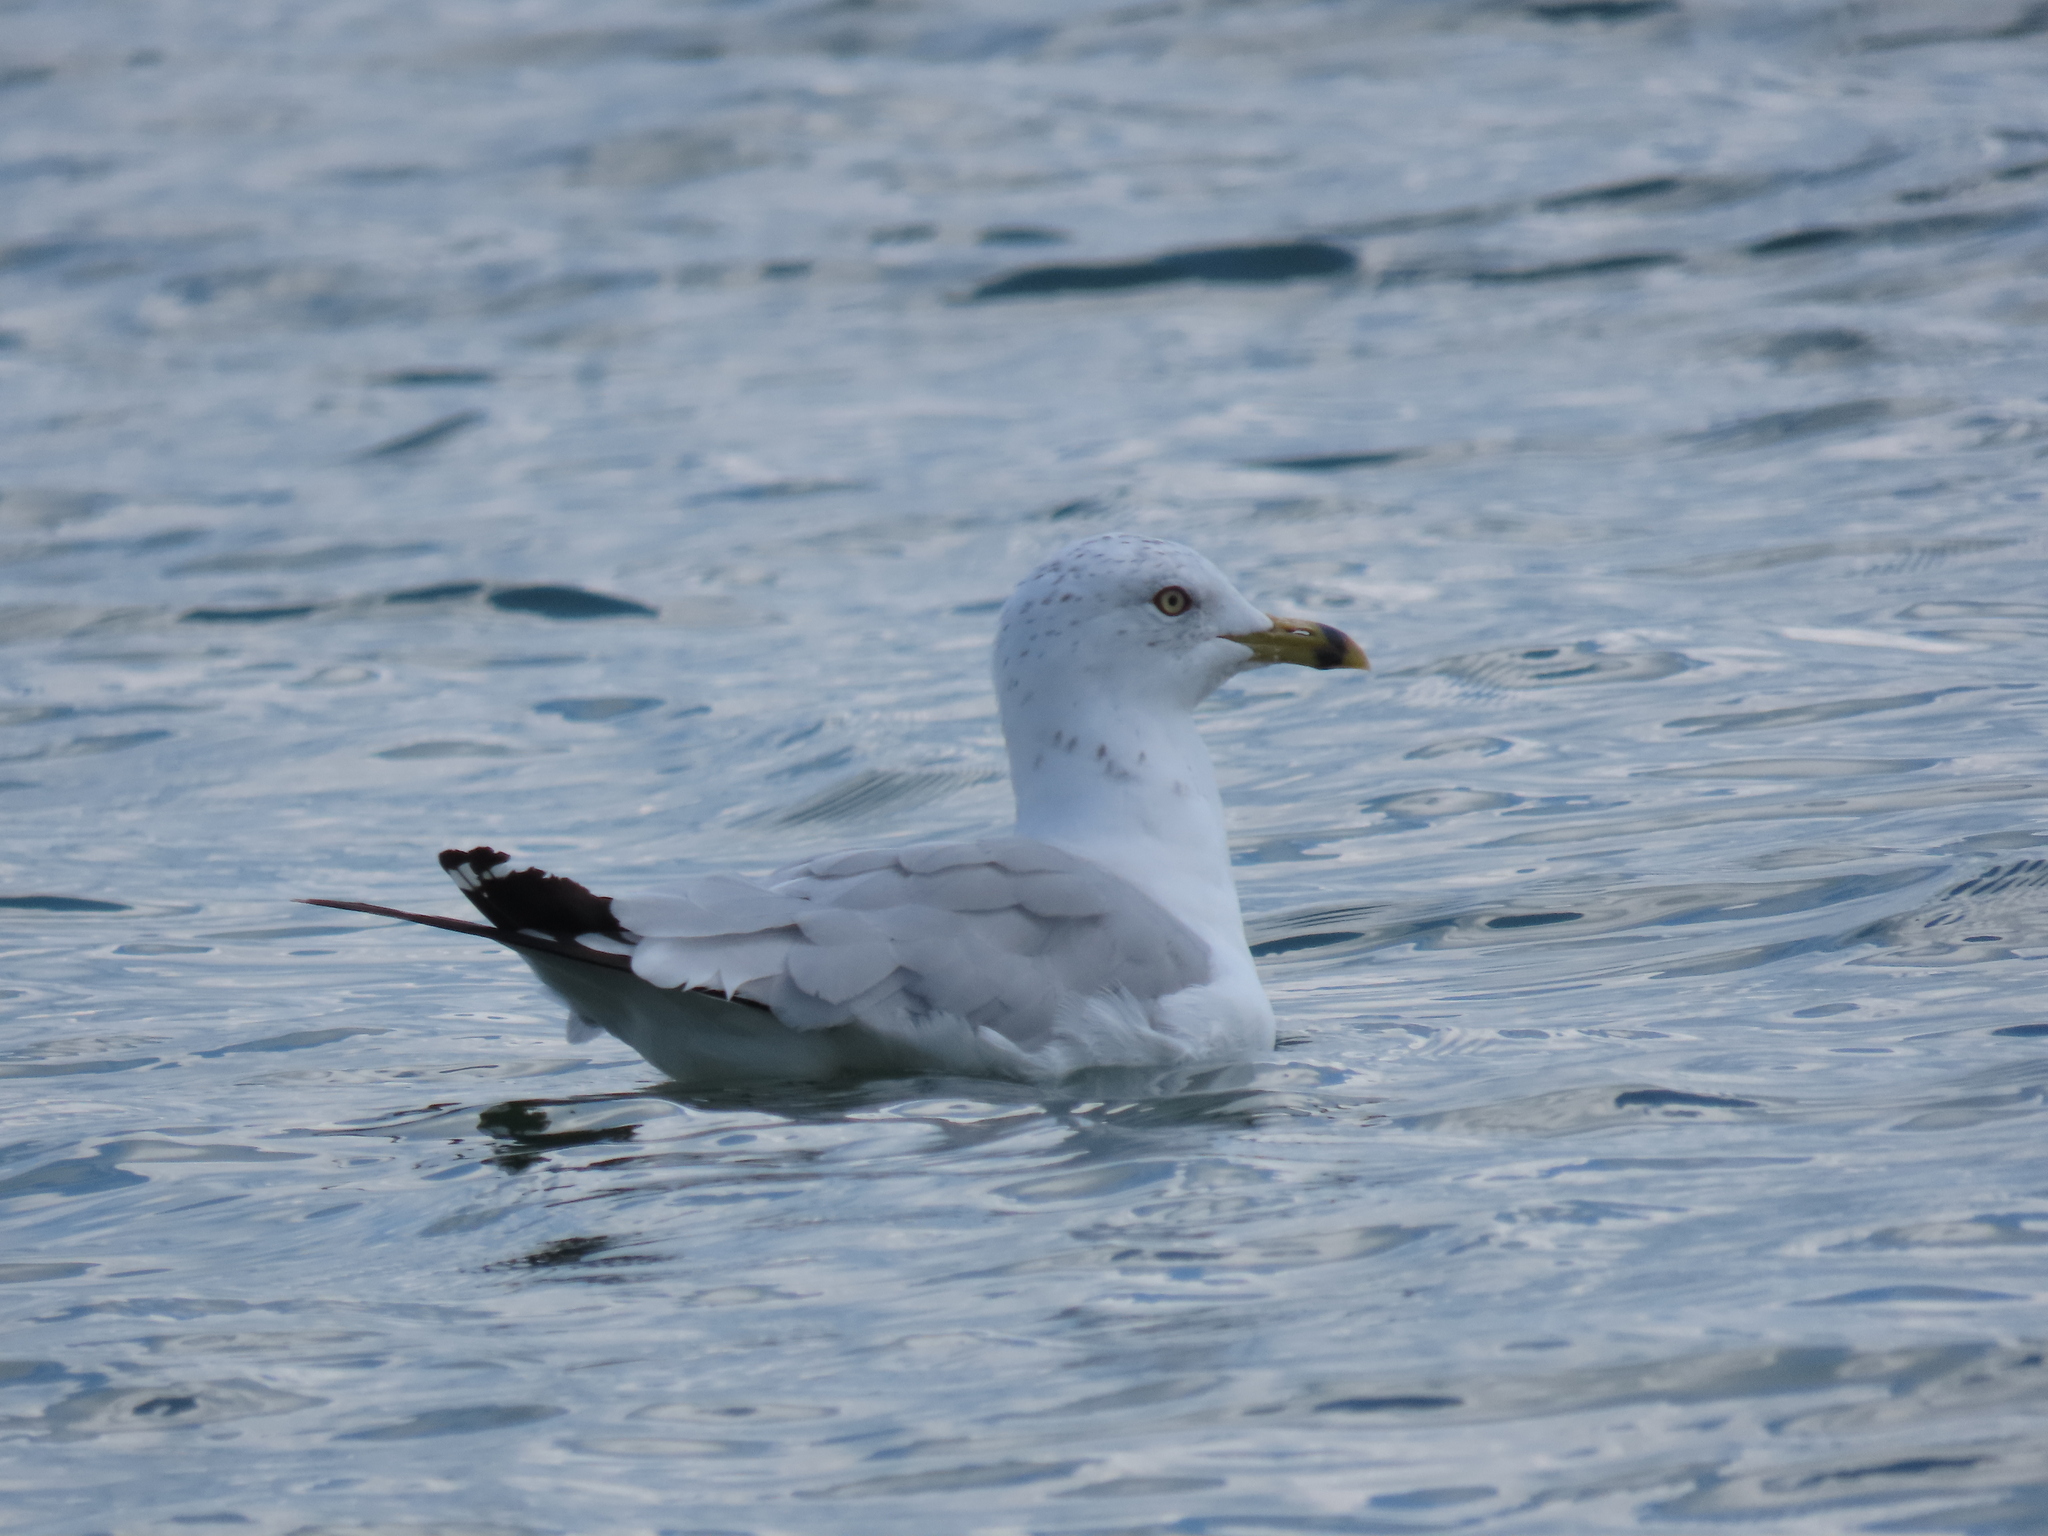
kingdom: Animalia
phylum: Chordata
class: Aves
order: Charadriiformes
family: Laridae
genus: Larus
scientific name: Larus delawarensis
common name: Ring-billed gull
